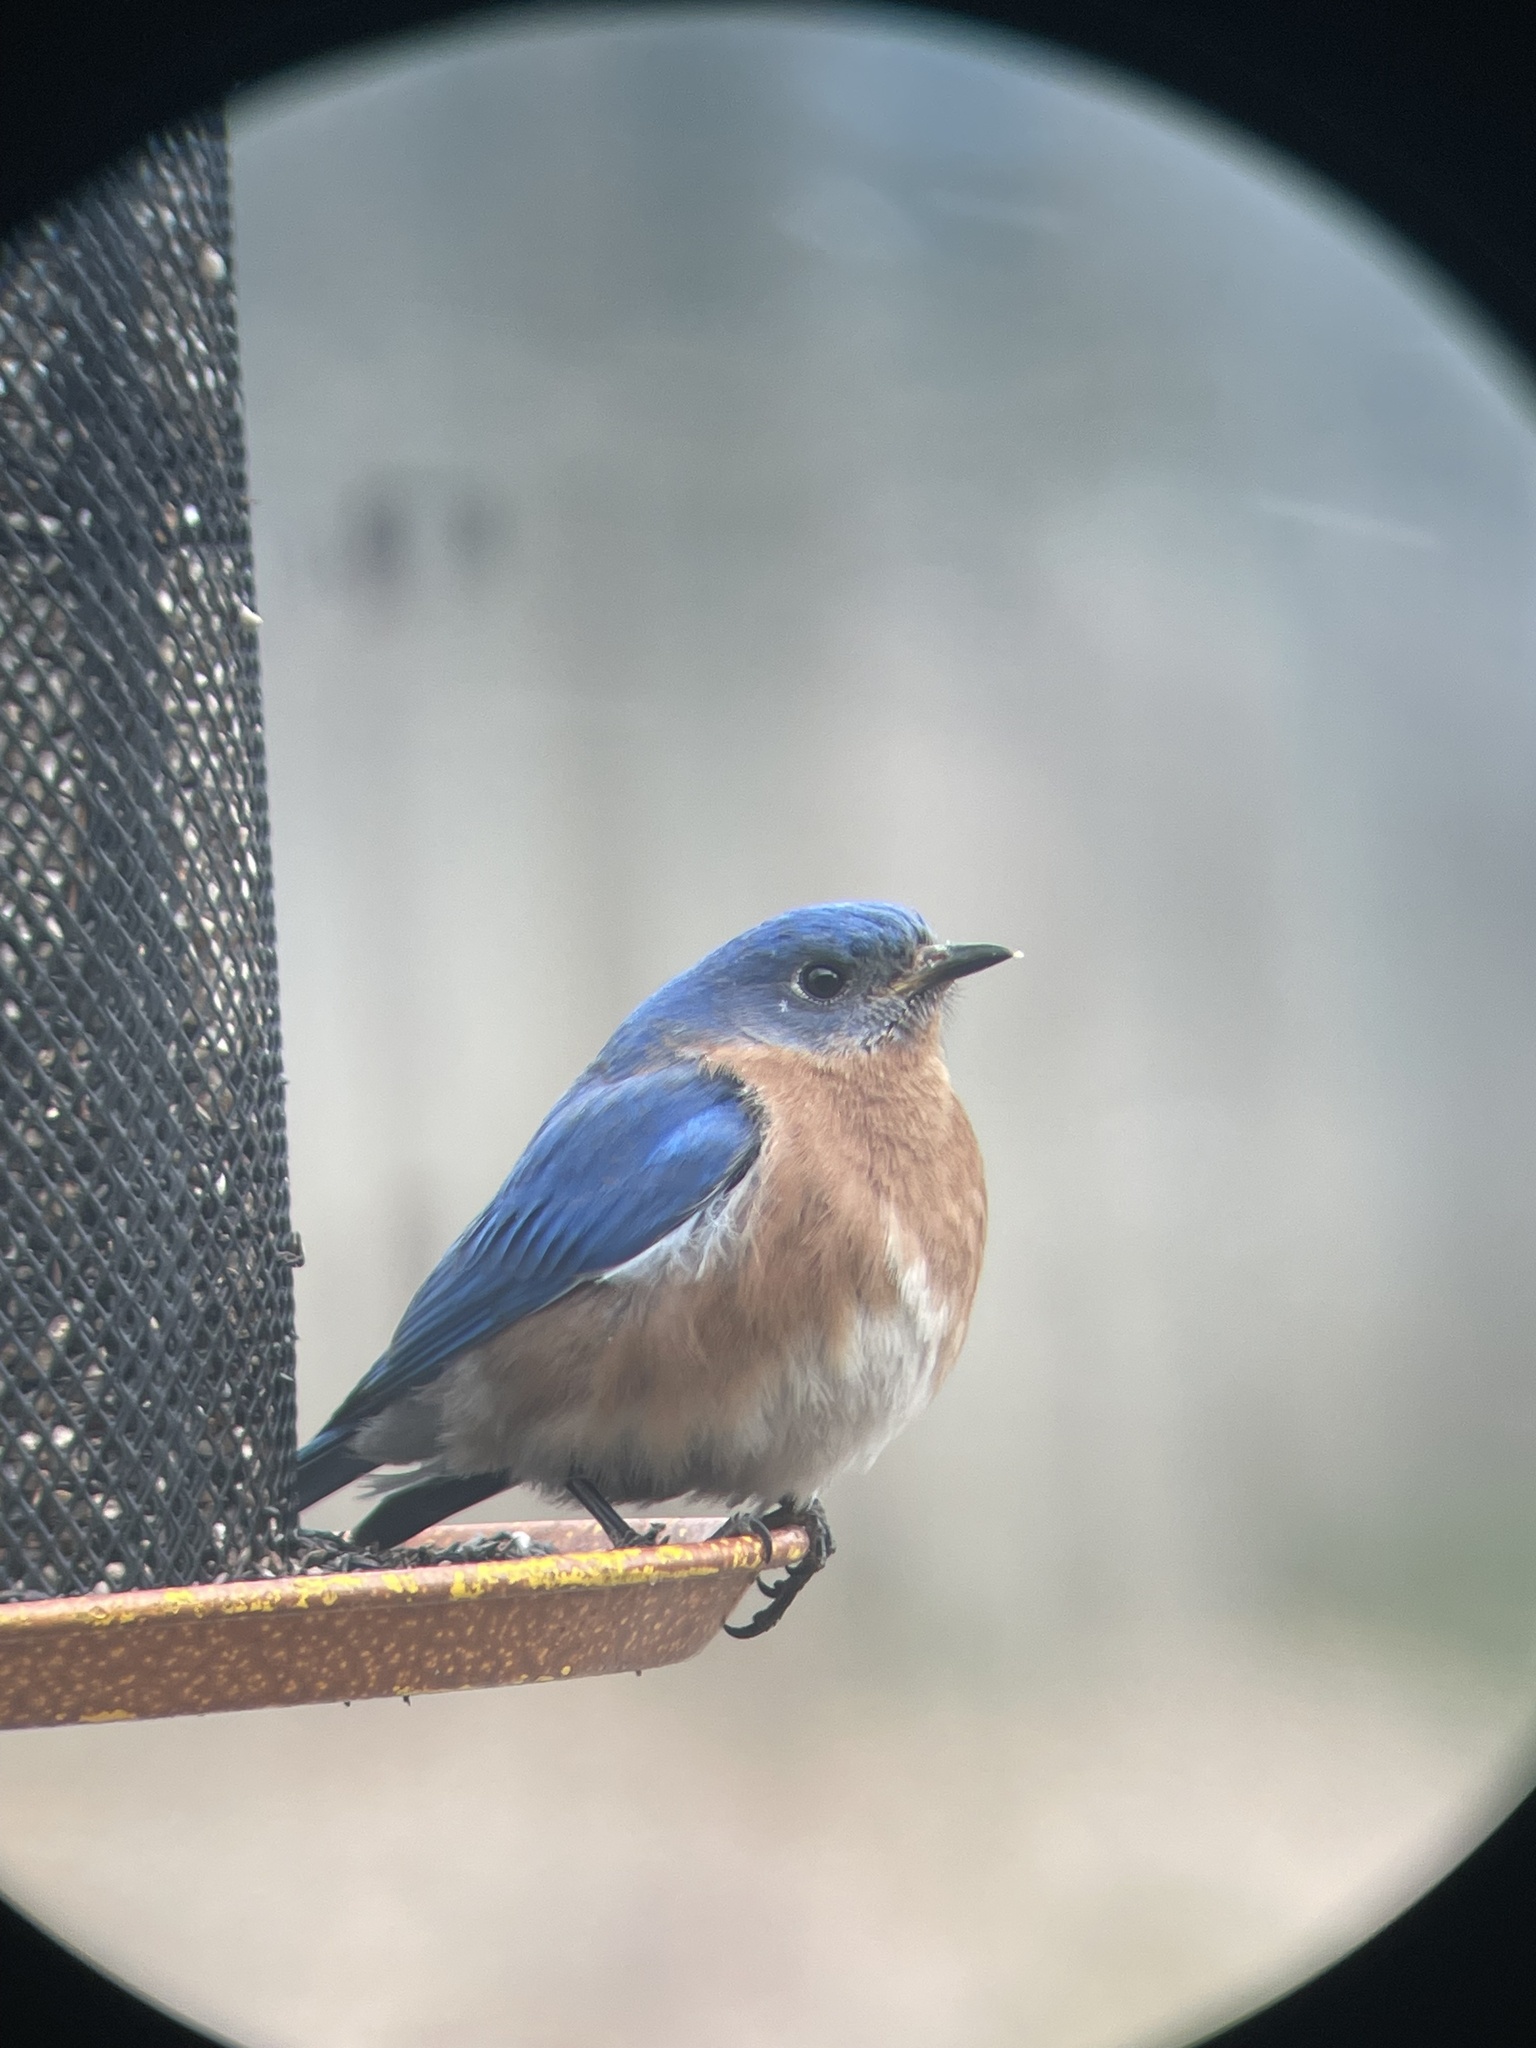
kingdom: Animalia
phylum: Chordata
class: Aves
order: Passeriformes
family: Turdidae
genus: Sialia
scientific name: Sialia sialis
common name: Eastern bluebird
